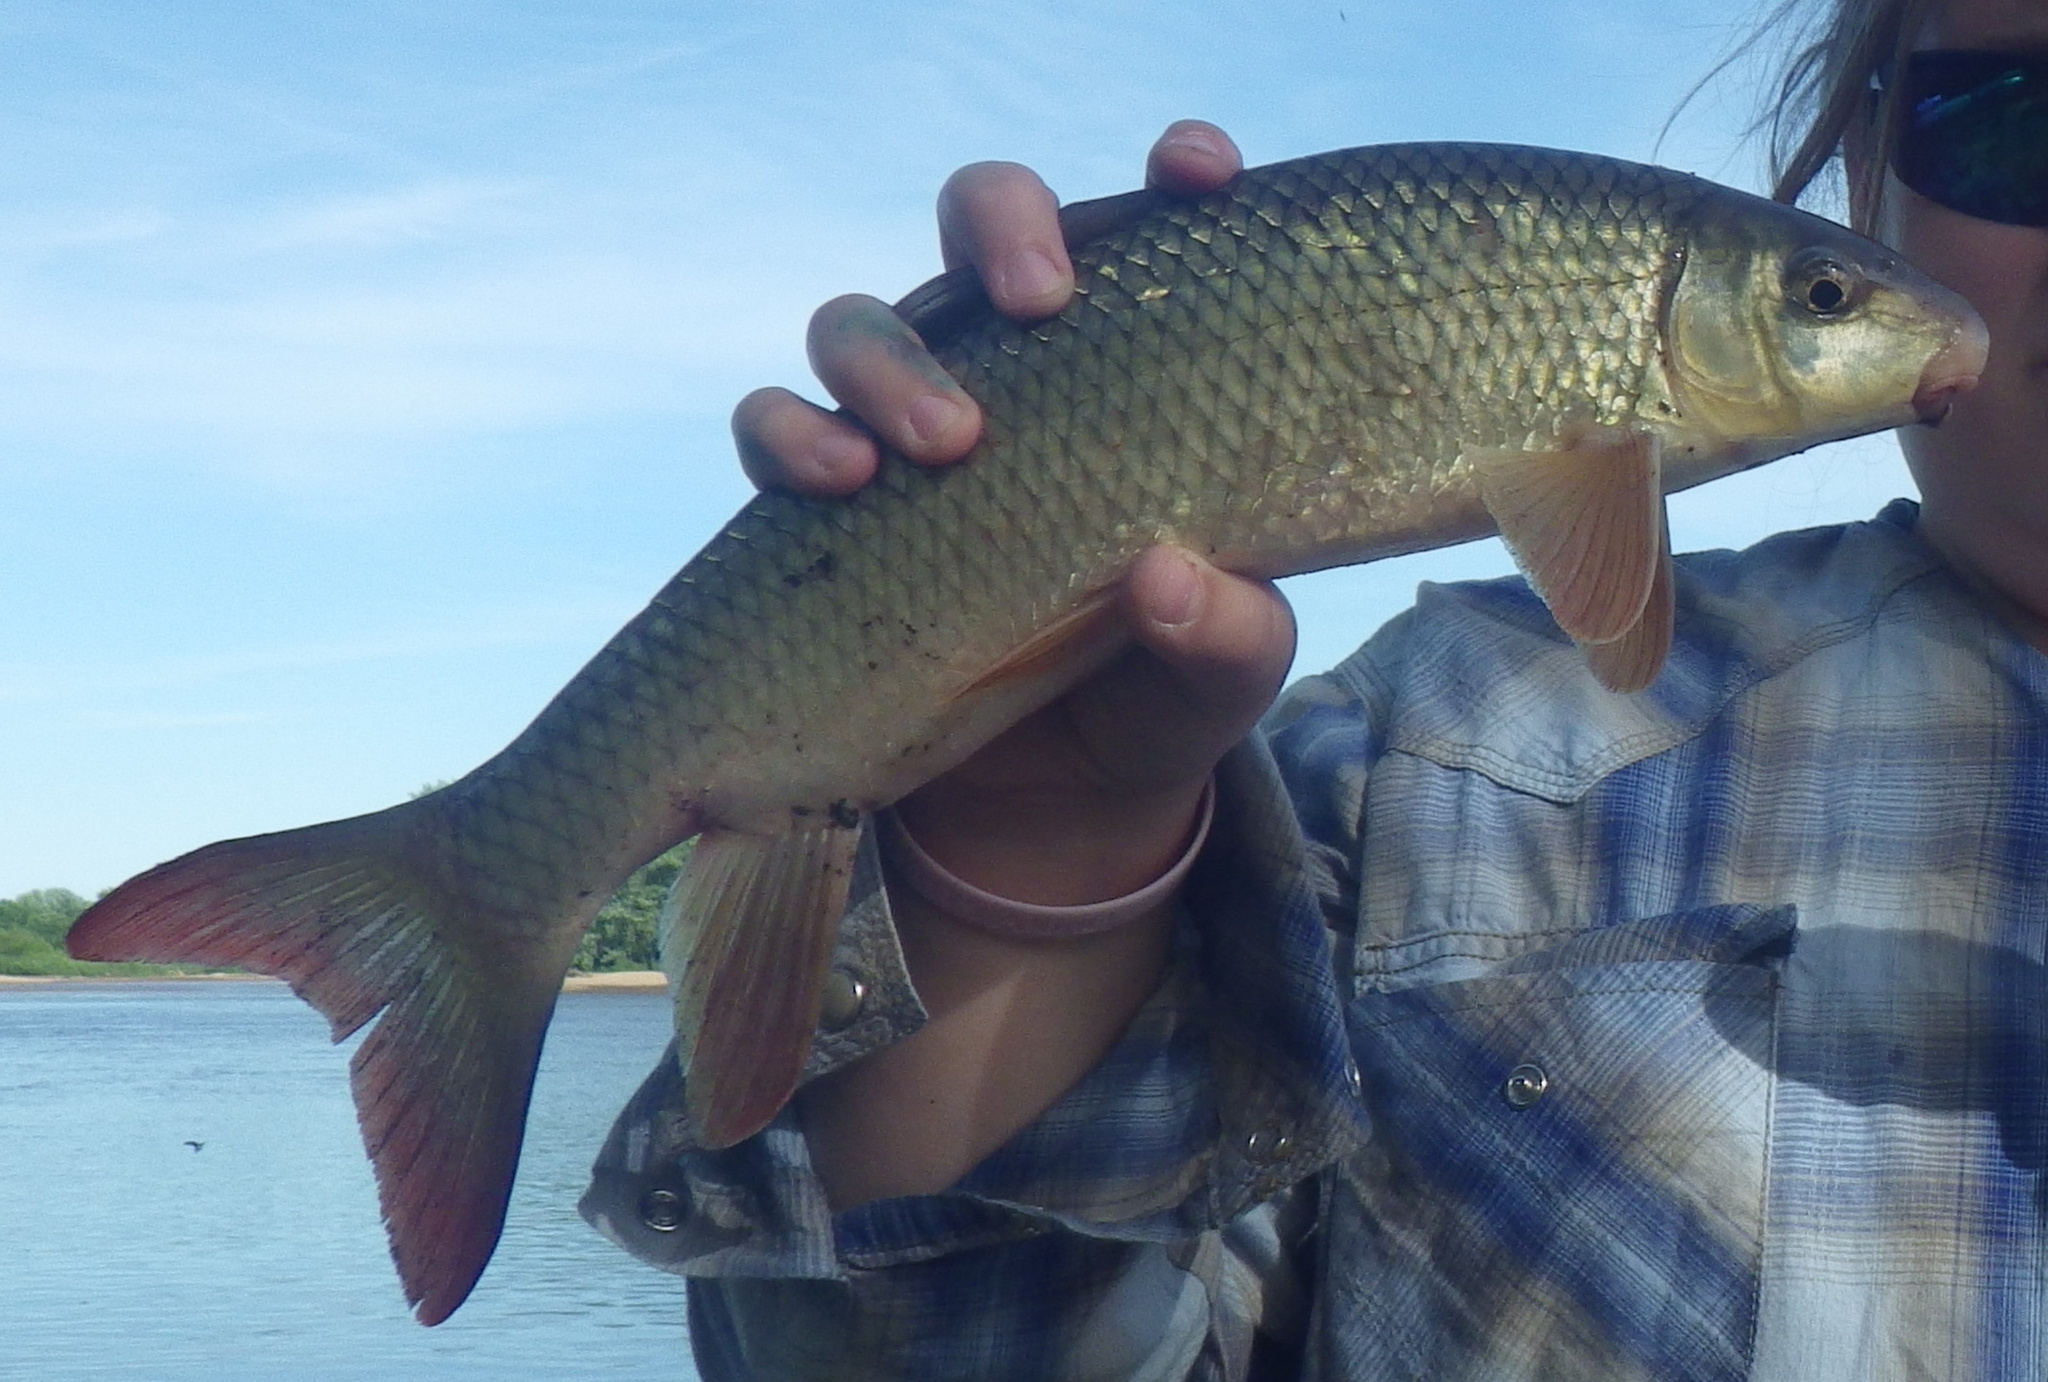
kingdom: Animalia
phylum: Chordata
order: Cypriniformes
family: Catostomidae
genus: Moxostoma
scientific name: Moxostoma macrolepidotum
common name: Shorthead redhorse
